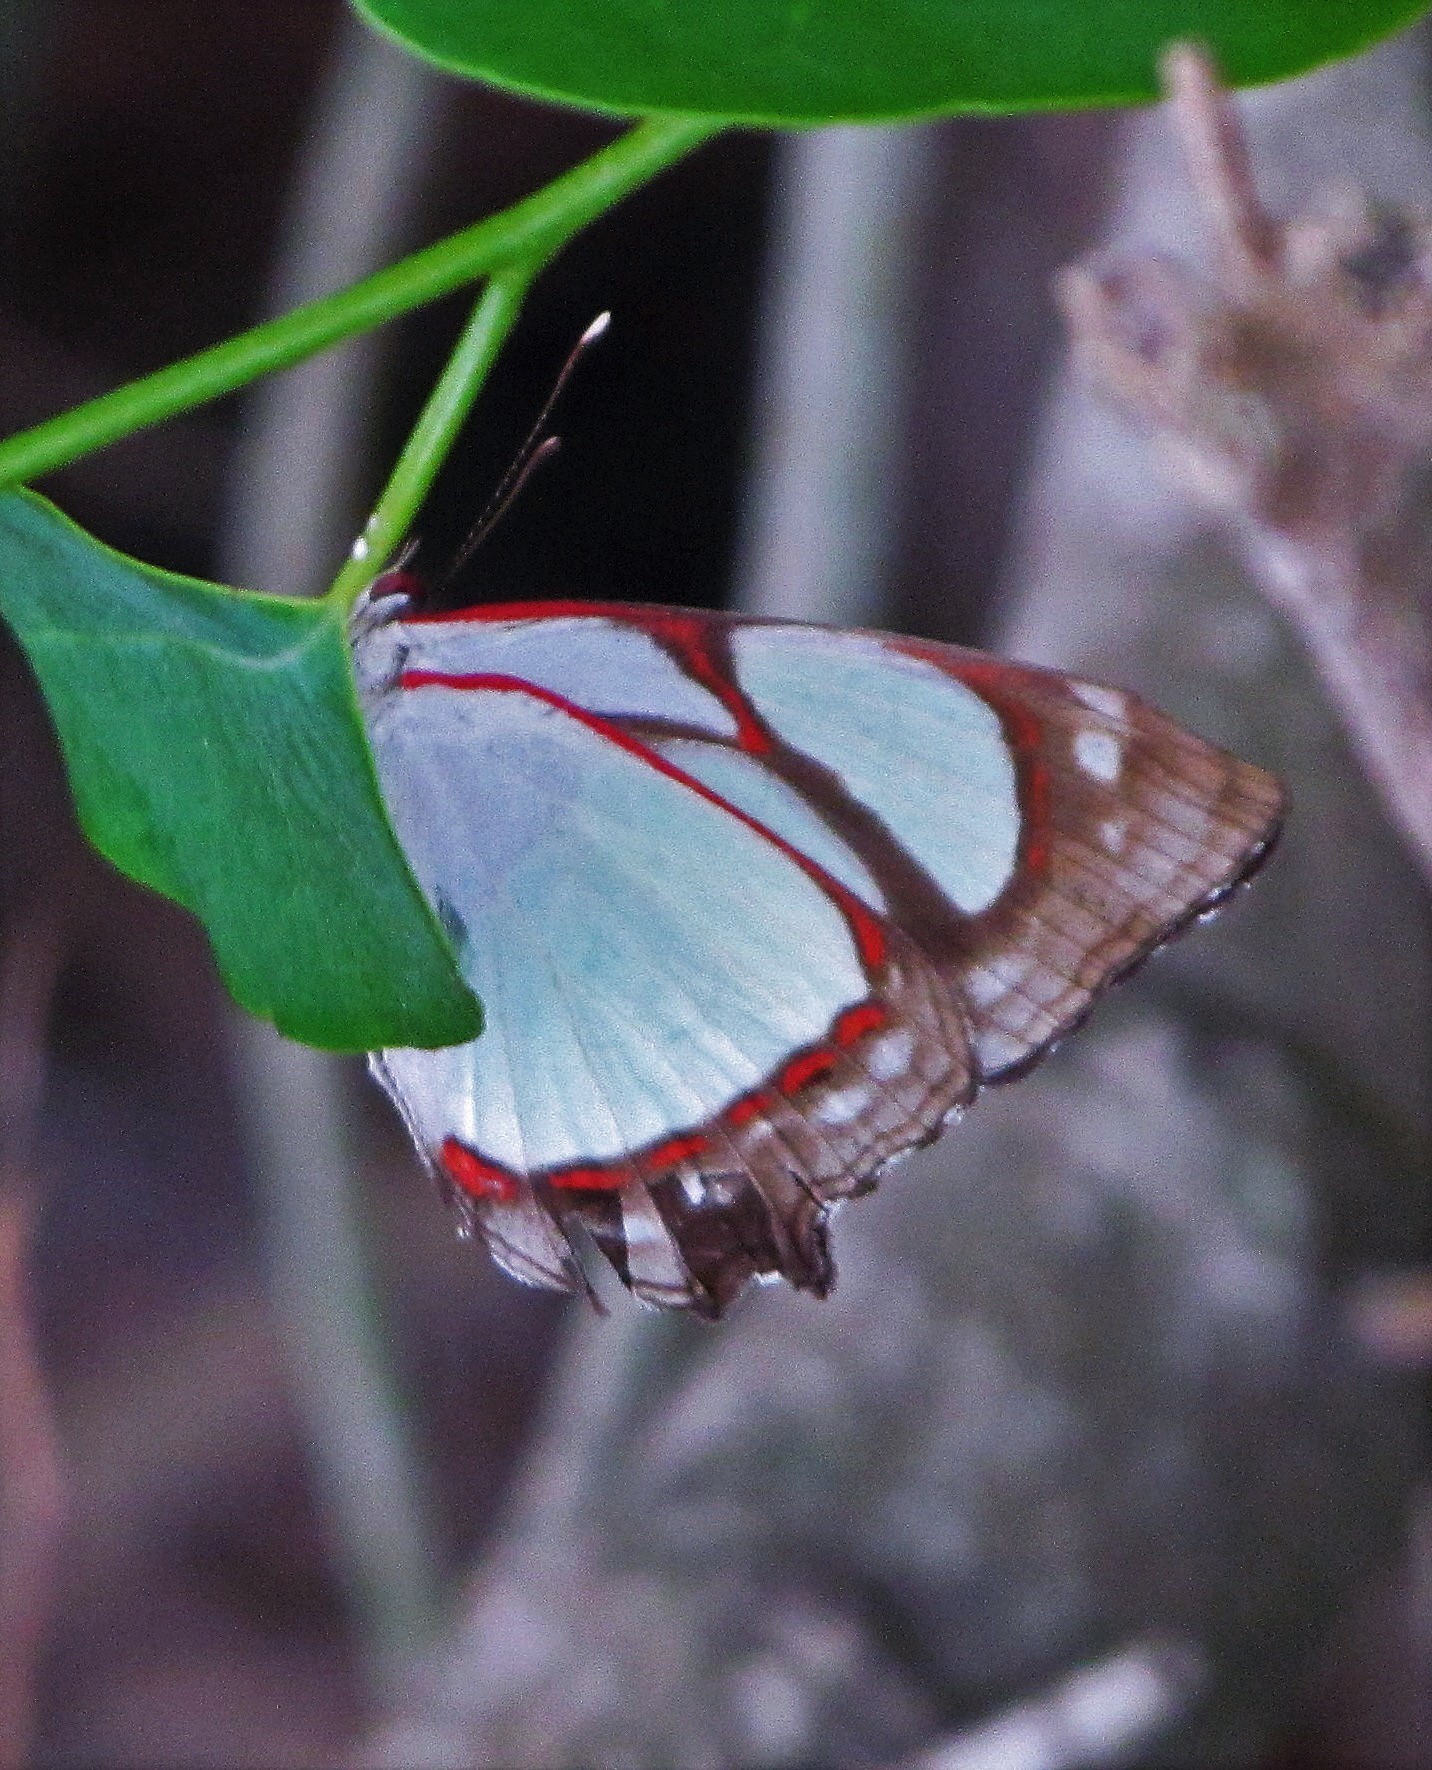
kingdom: Animalia
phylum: Arthropoda
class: Insecta
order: Lepidoptera
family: Nymphalidae
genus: Pyrrhogyra
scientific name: Pyrrhogyra neaerea
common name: Leading red-ring
